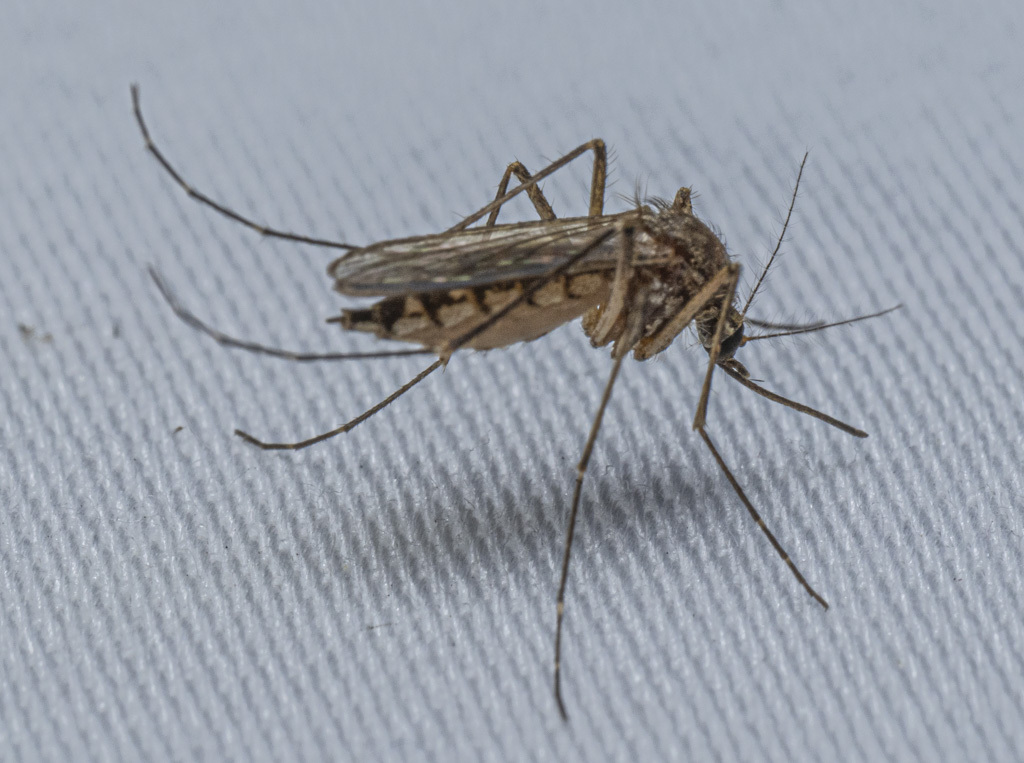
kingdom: Animalia
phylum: Arthropoda
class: Insecta
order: Diptera
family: Culicidae
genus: Aedes
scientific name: Aedes vexans
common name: Inland floodwater mosquito
